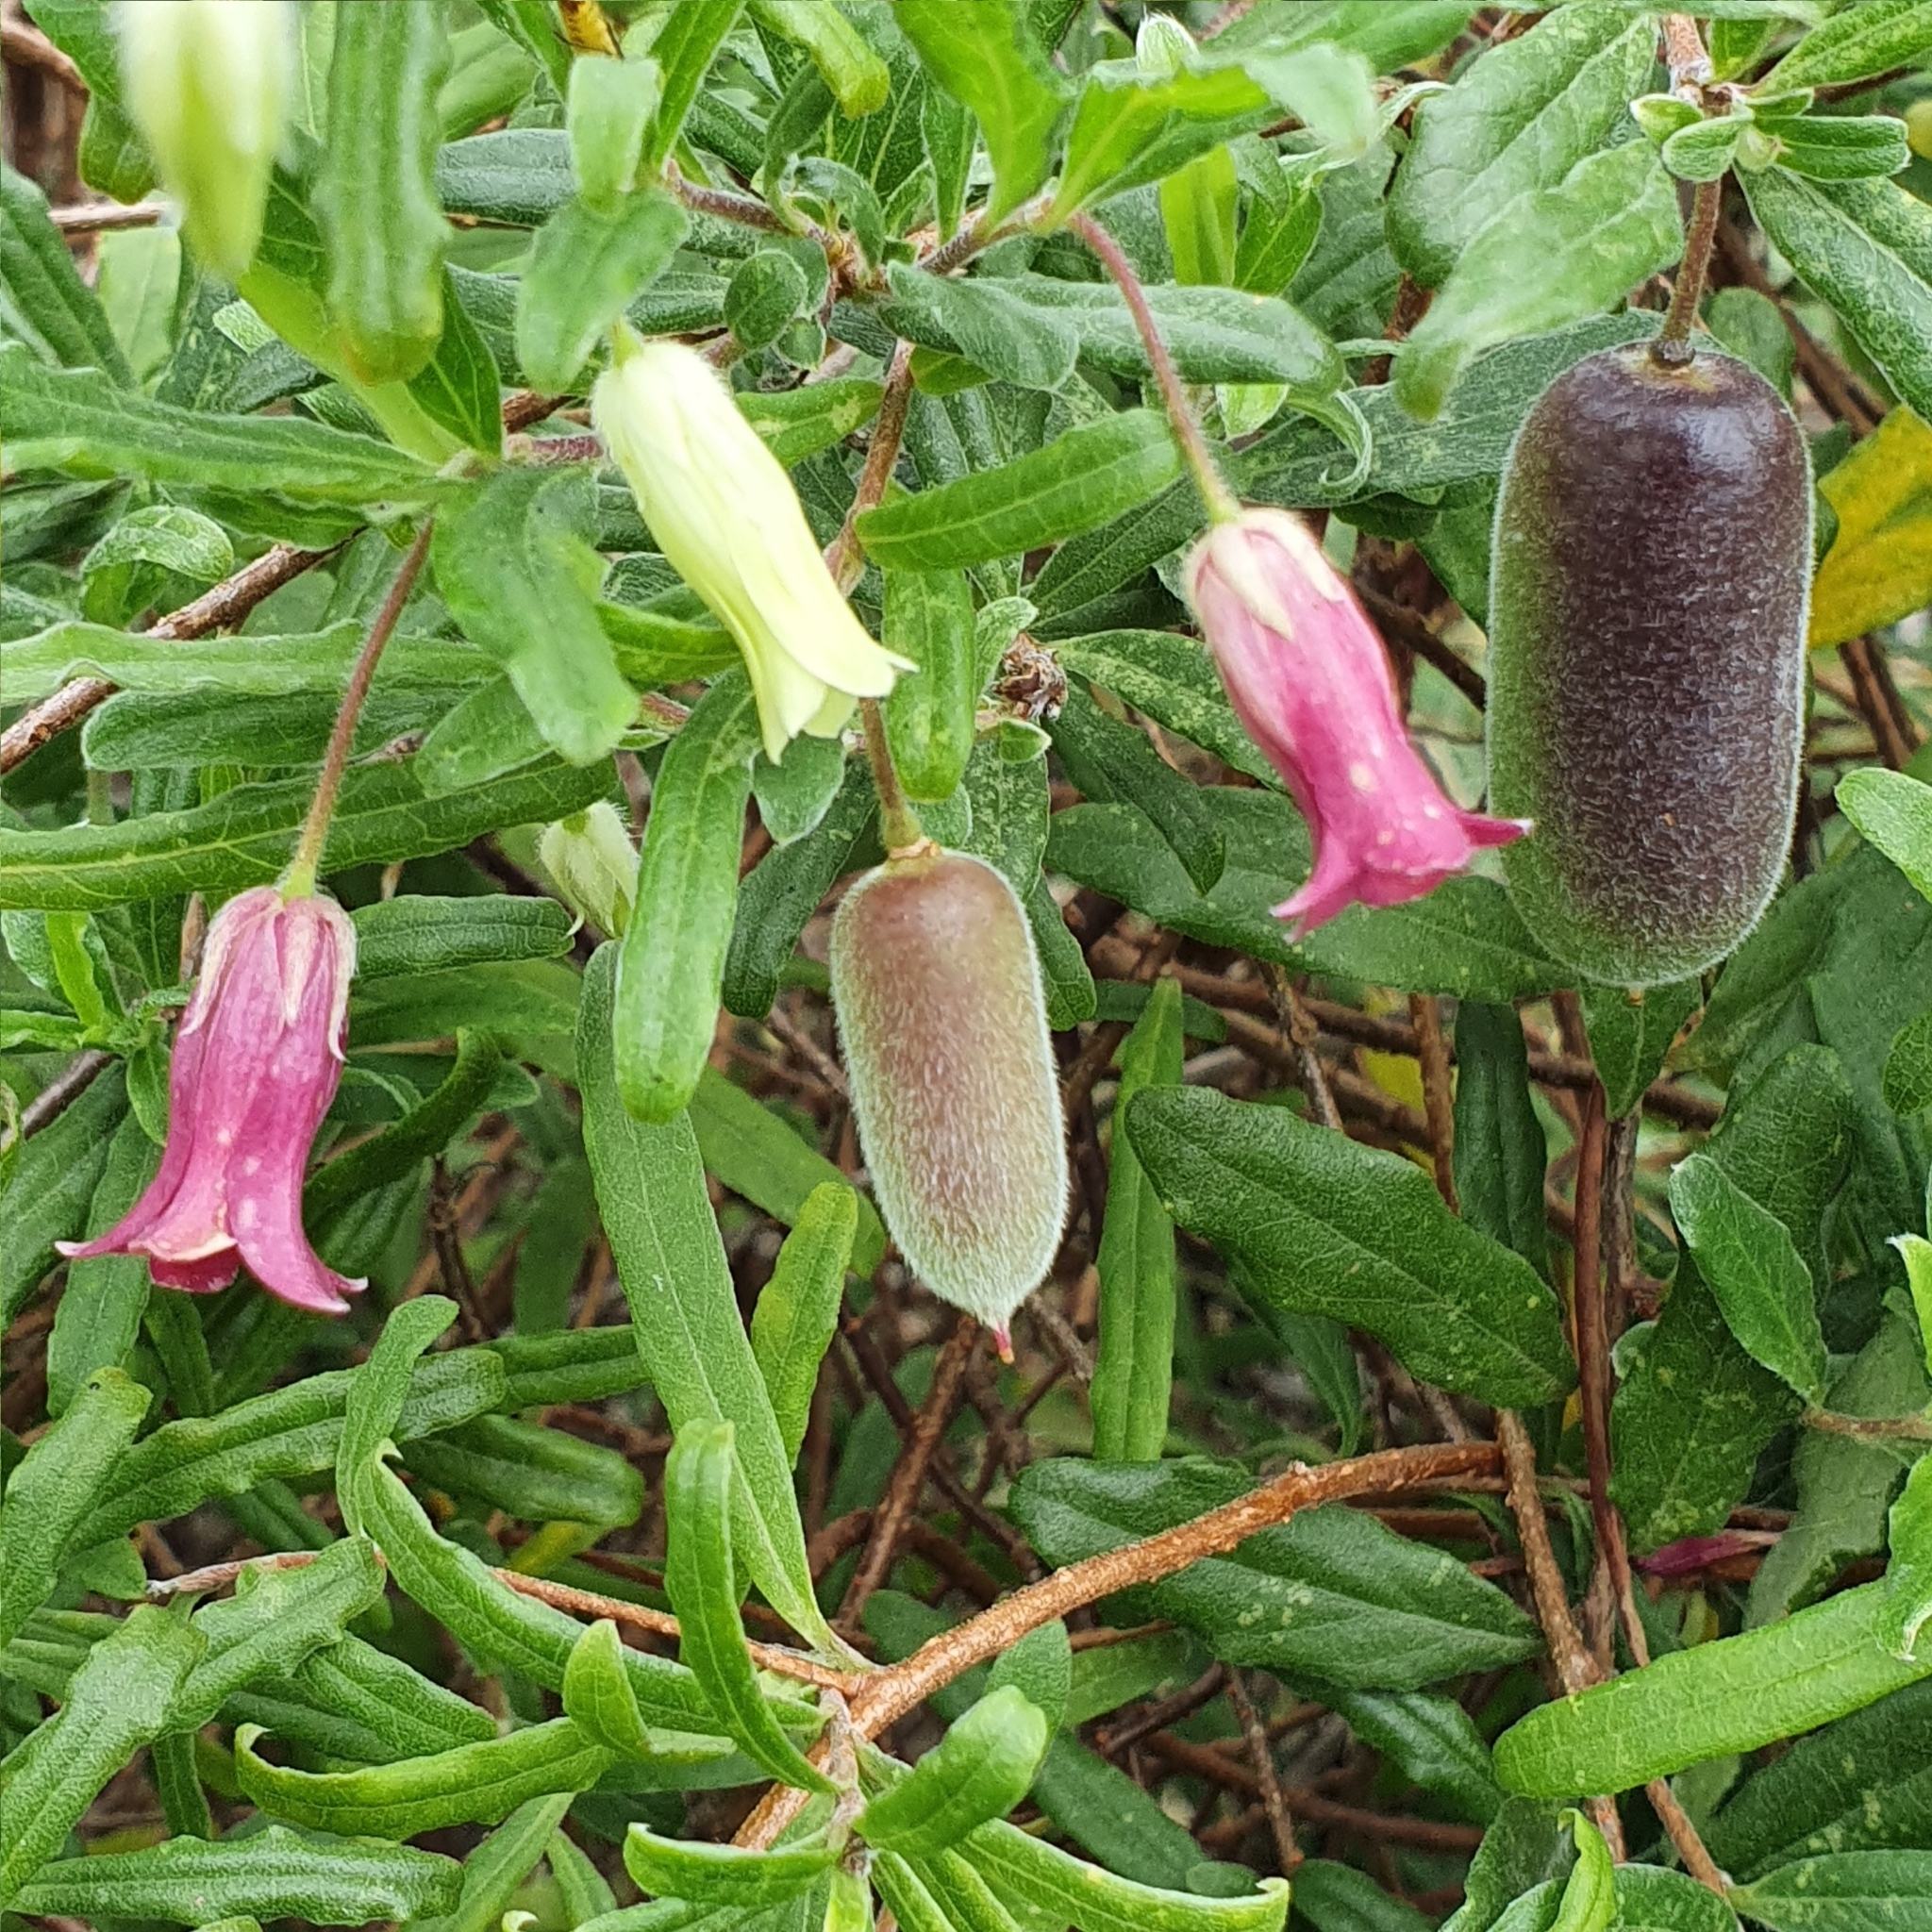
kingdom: Plantae
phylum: Tracheophyta
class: Magnoliopsida
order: Apiales
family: Pittosporaceae
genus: Billardiera
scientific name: Billardiera scandens
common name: Apple-berry
